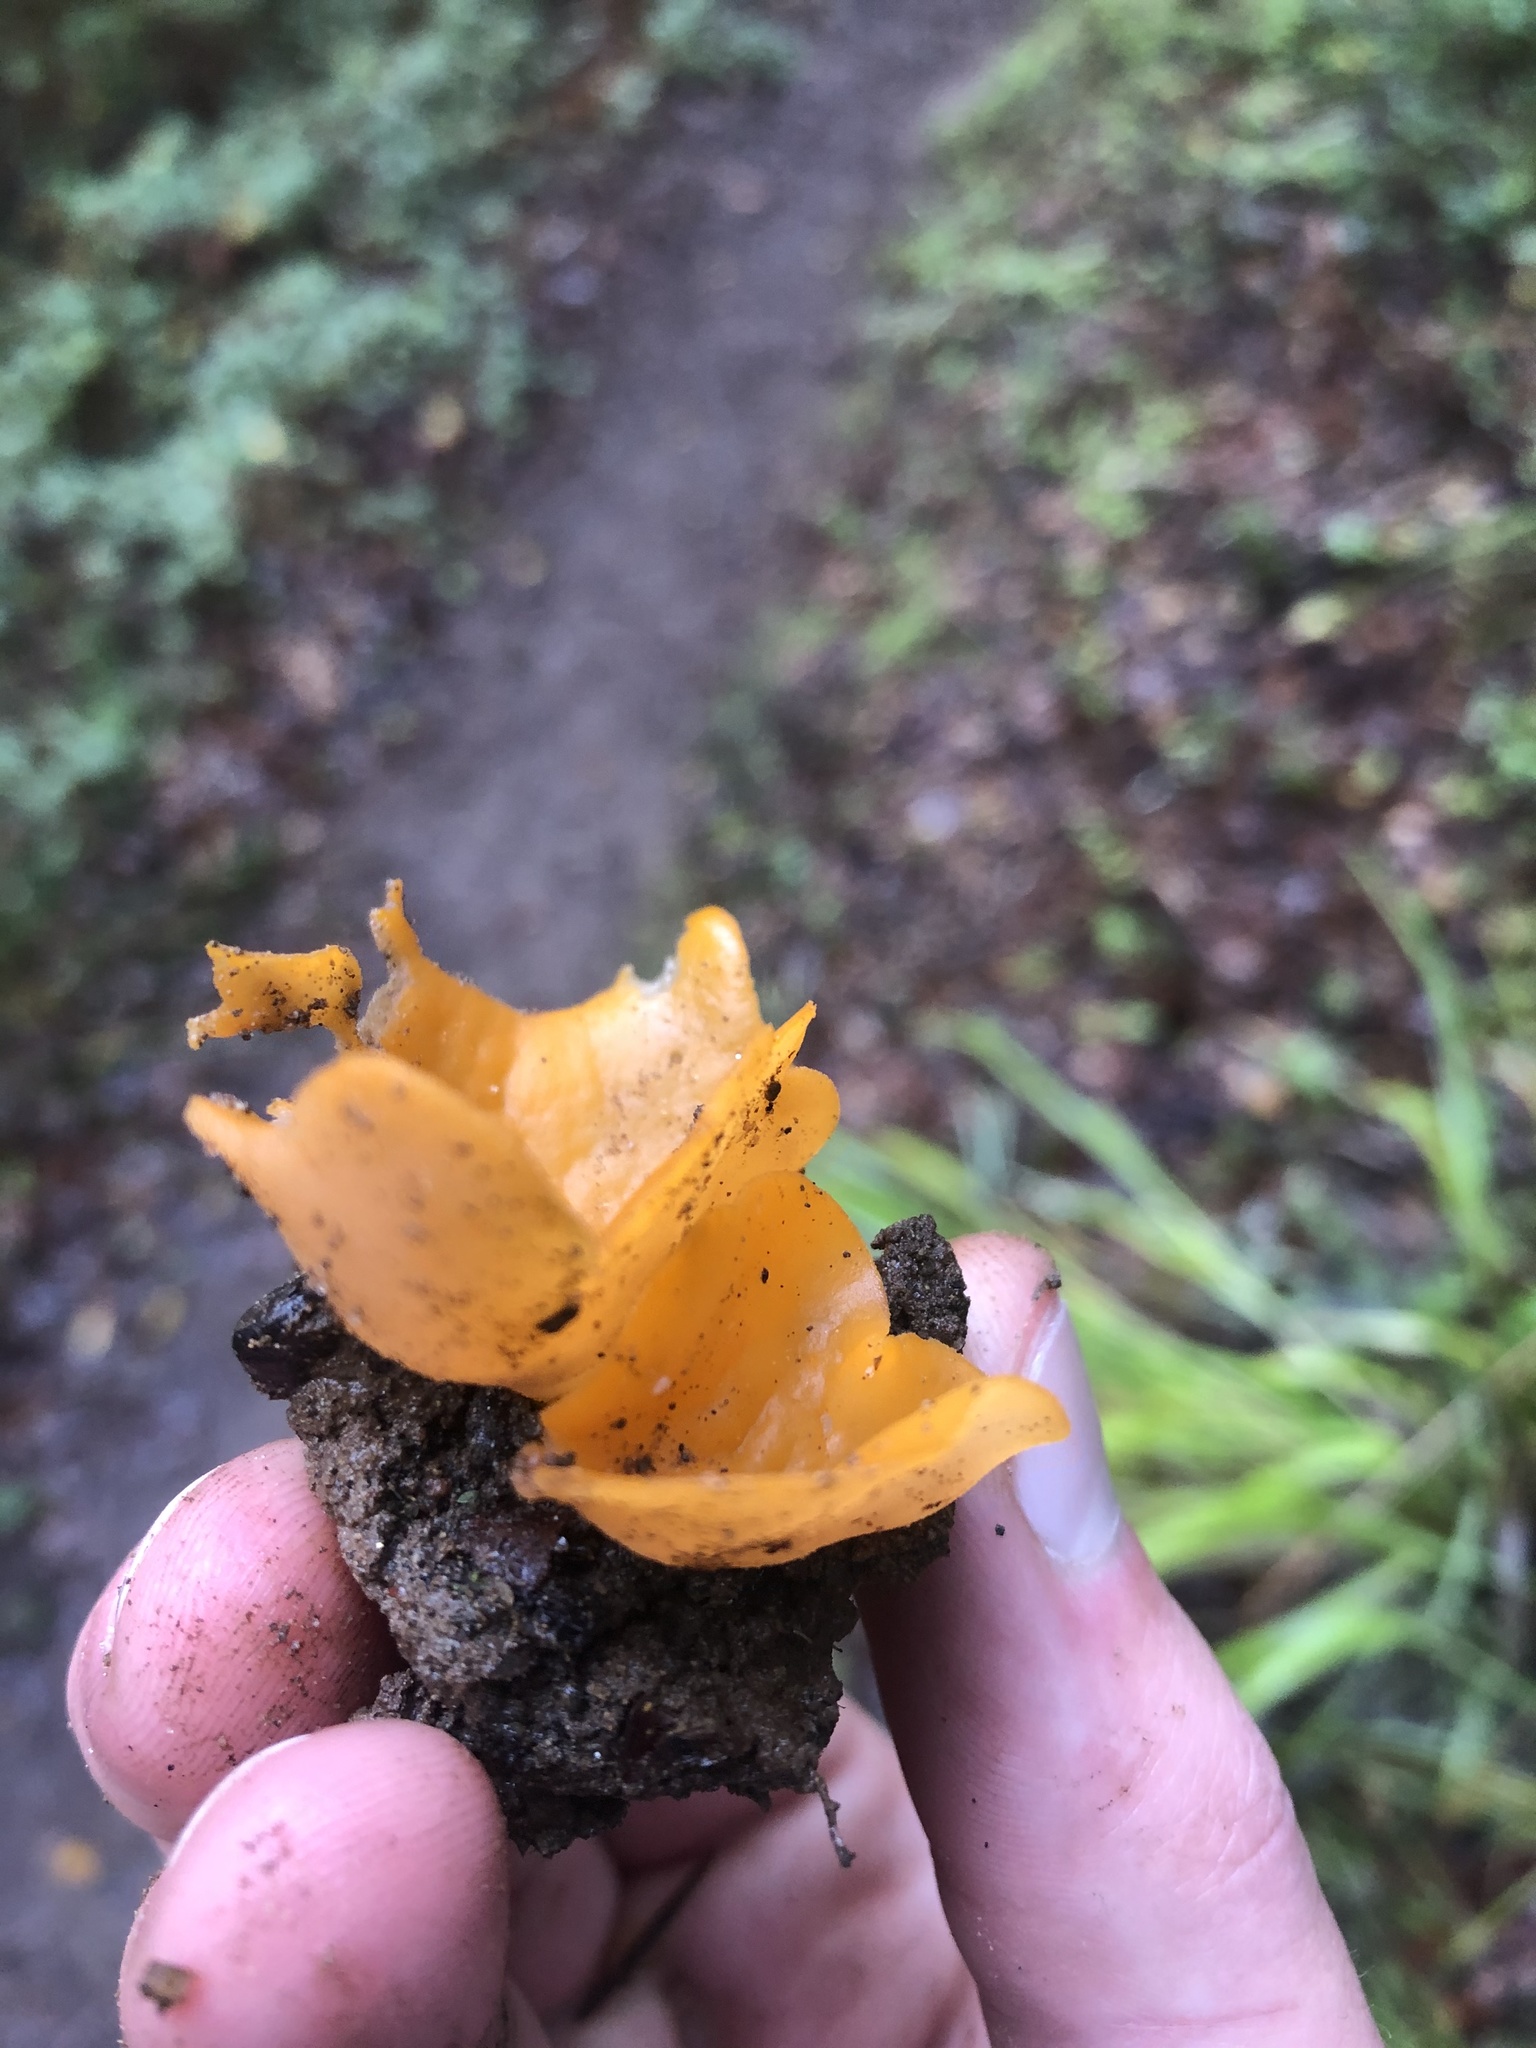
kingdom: Fungi
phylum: Ascomycota
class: Pezizomycetes
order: Pezizales
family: Pyronemataceae
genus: Aleuria
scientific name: Aleuria aurantia
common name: Orange peel fungus
